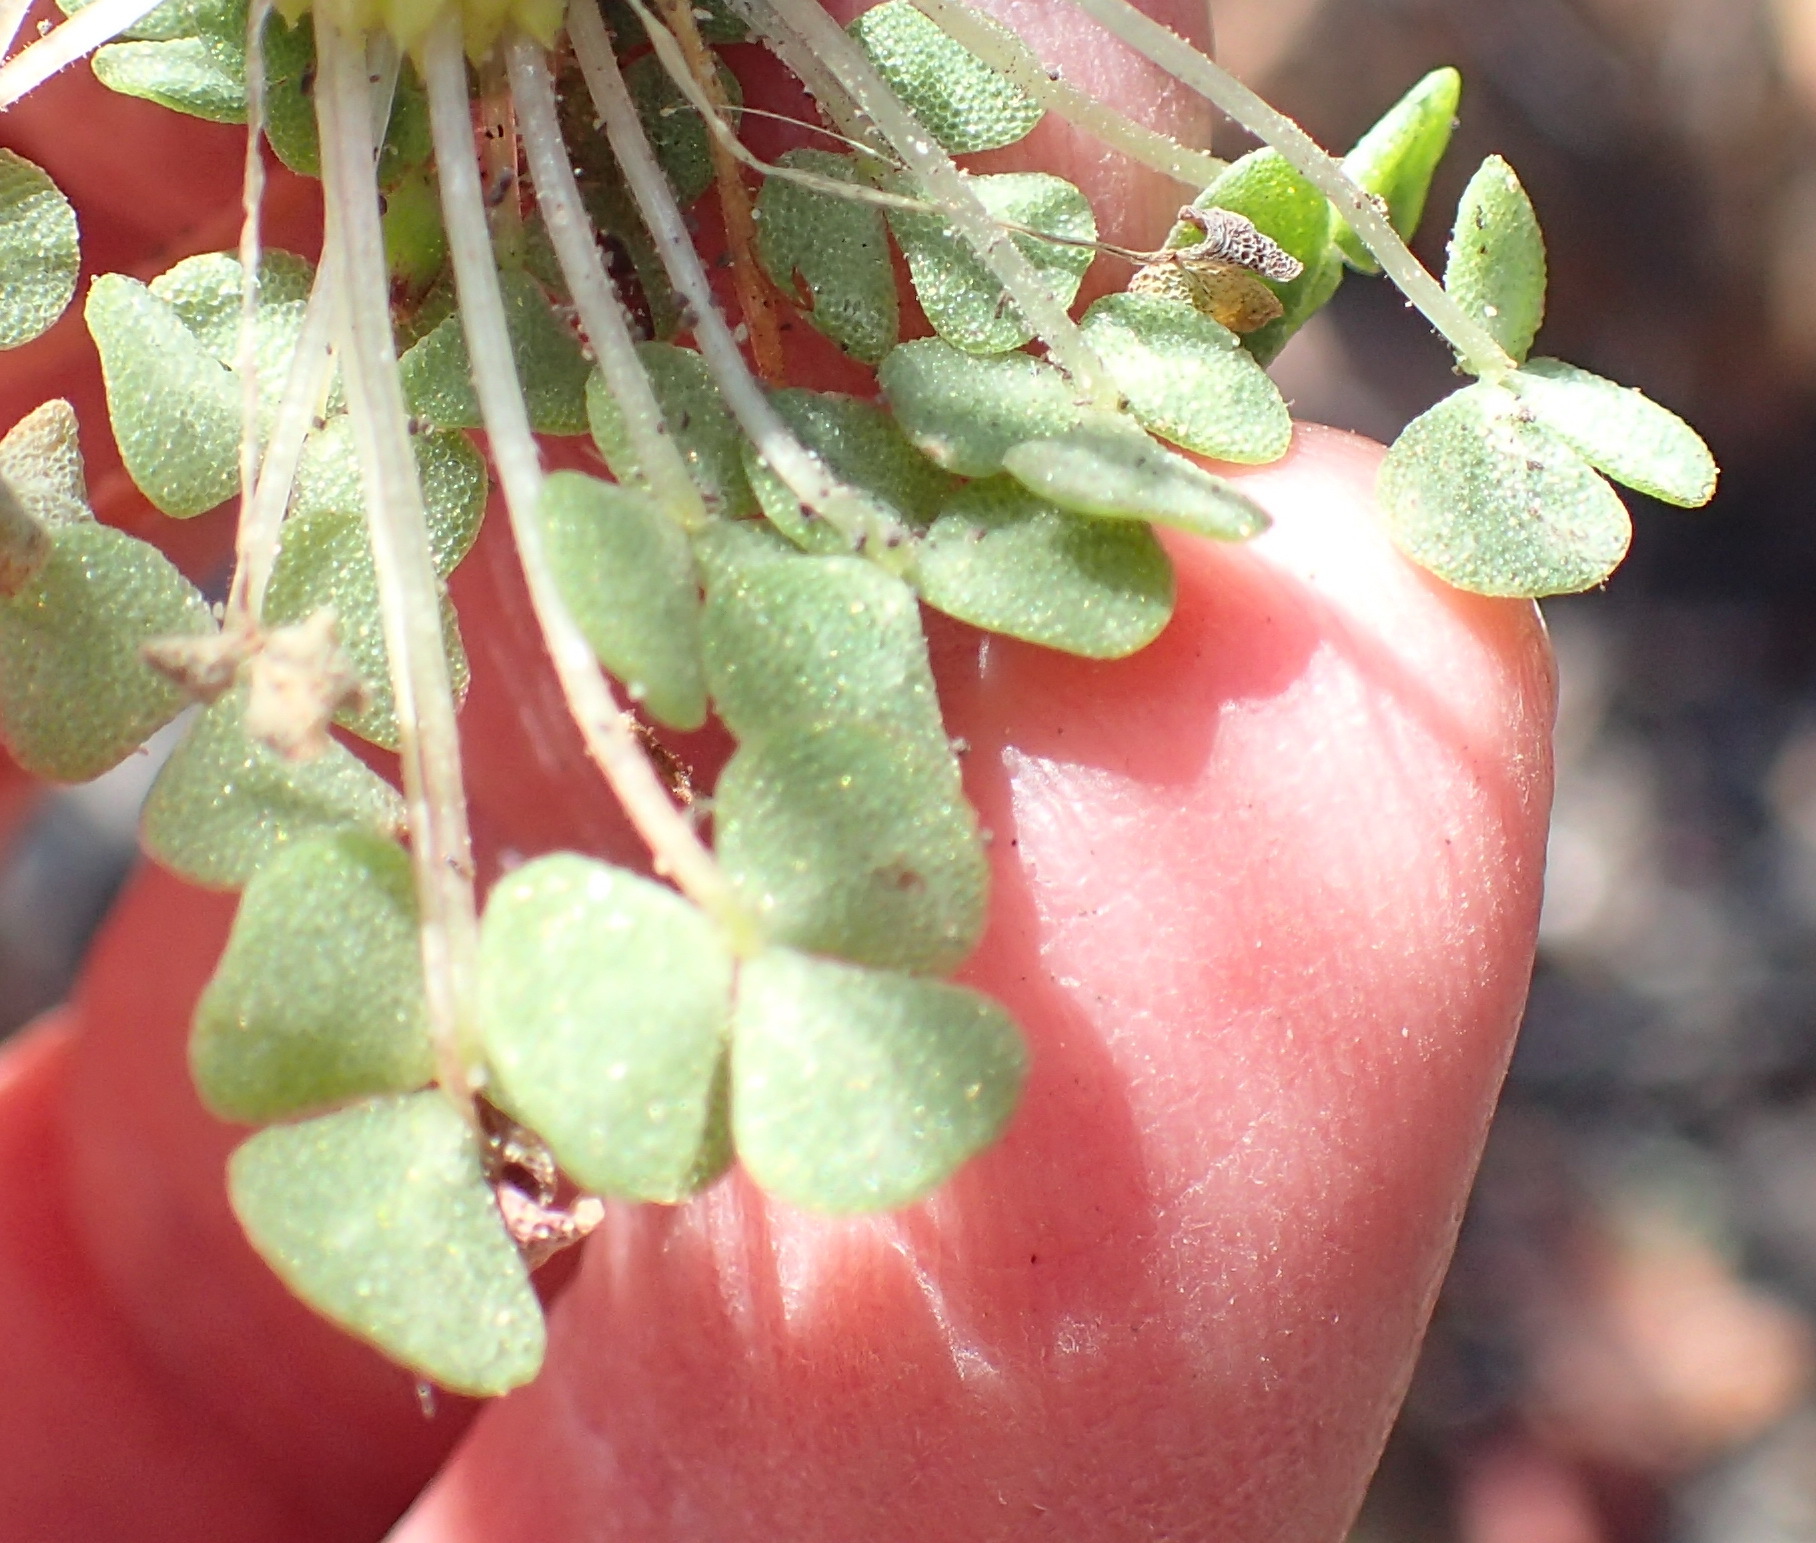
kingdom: Plantae
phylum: Tracheophyta
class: Magnoliopsida
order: Oxalidales
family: Oxalidaceae
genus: Oxalis
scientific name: Oxalis fergusoniae
